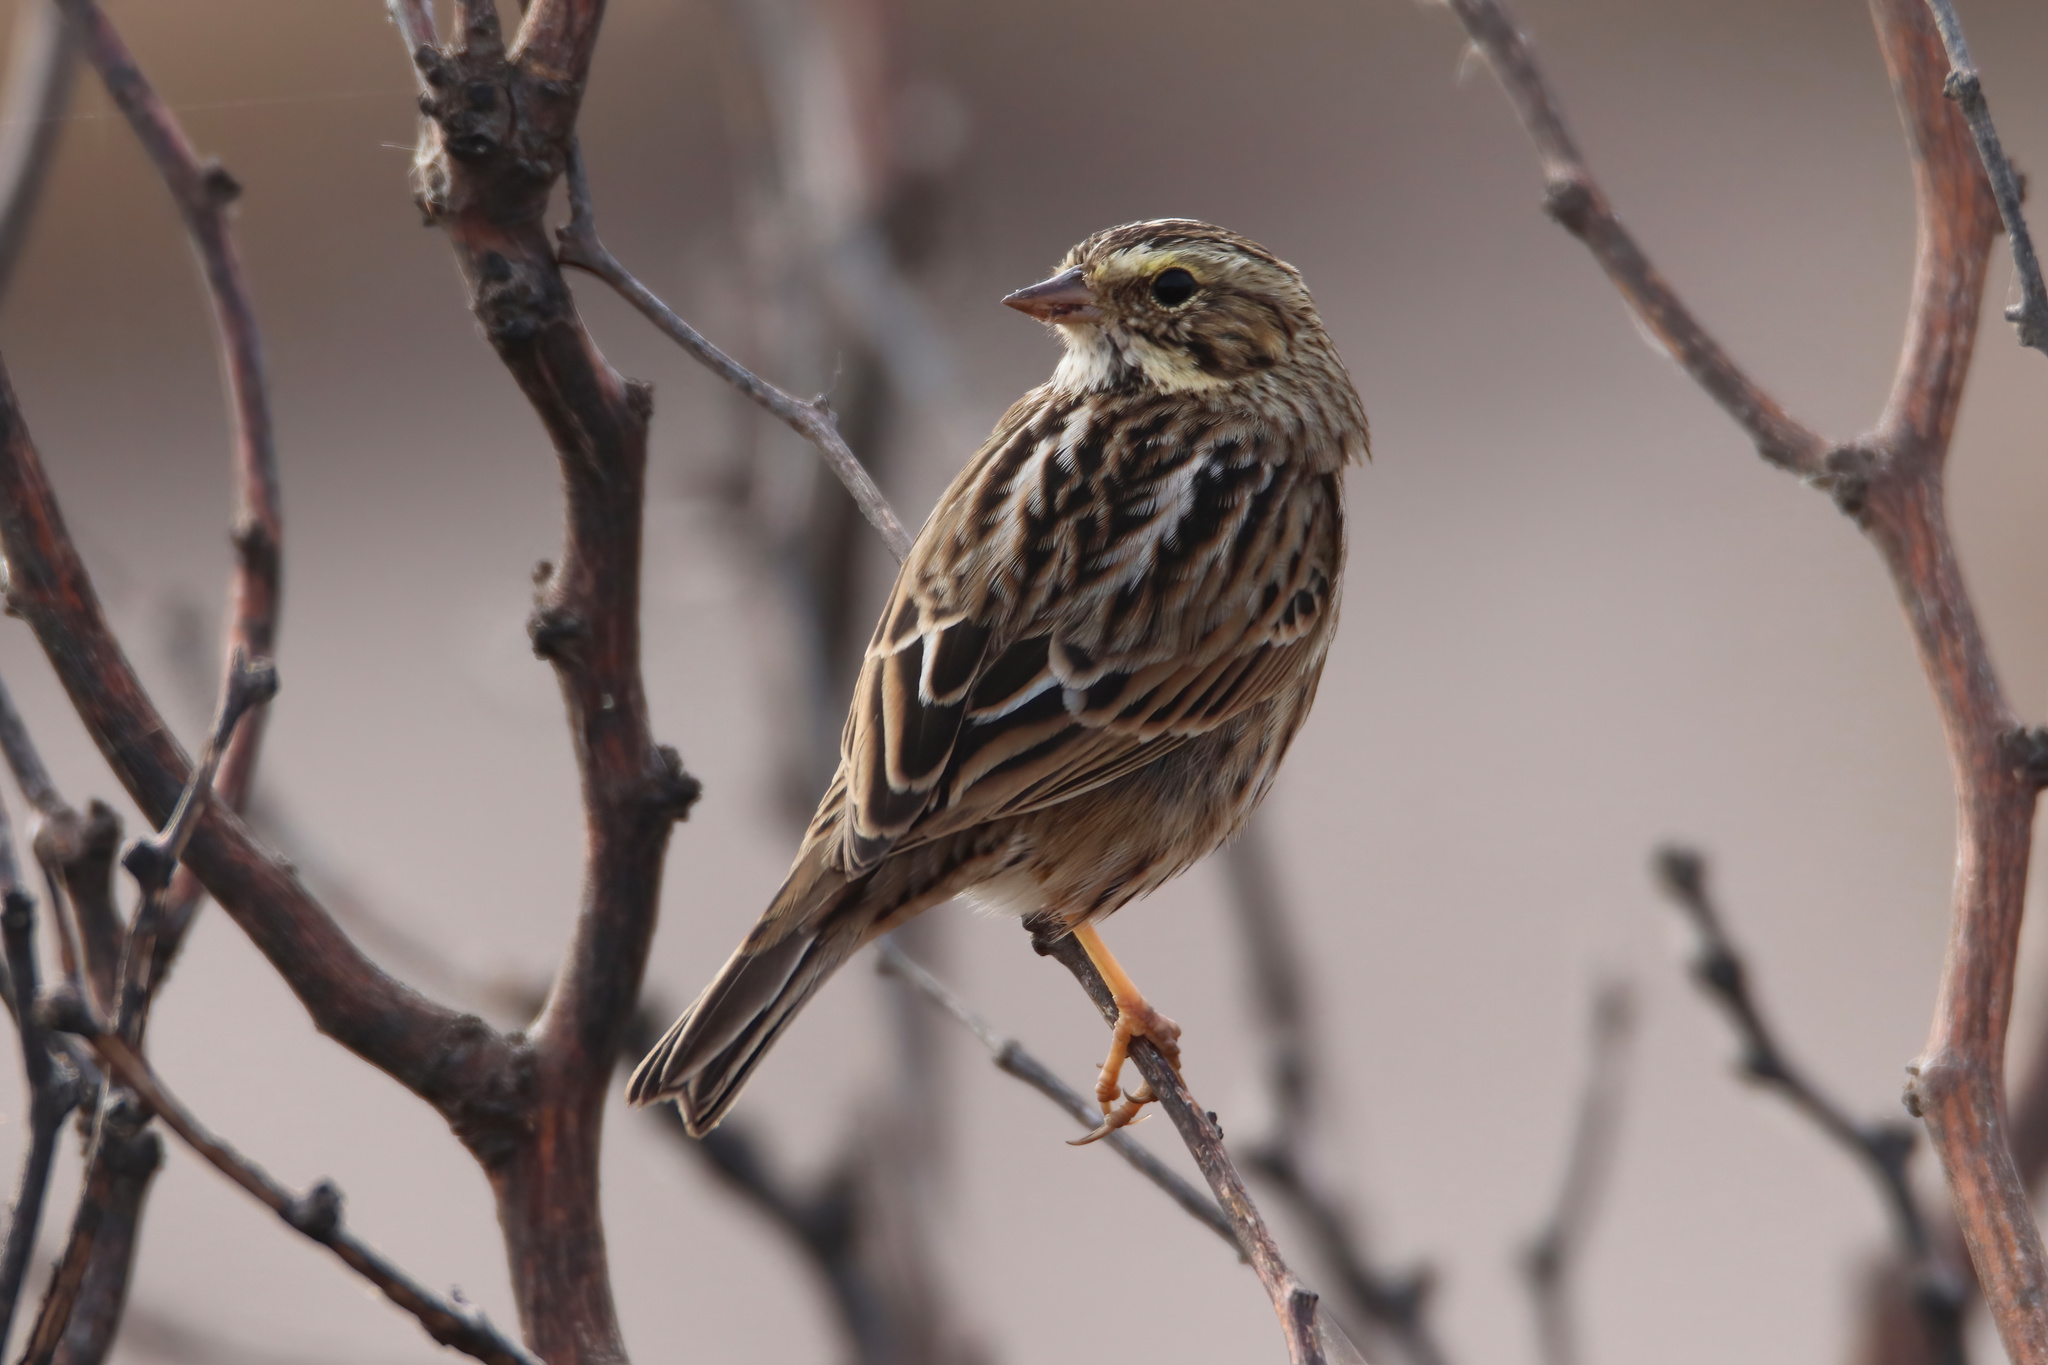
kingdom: Animalia
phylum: Chordata
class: Aves
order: Passeriformes
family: Passerellidae
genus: Passerculus
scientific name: Passerculus sandwichensis
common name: Savannah sparrow
